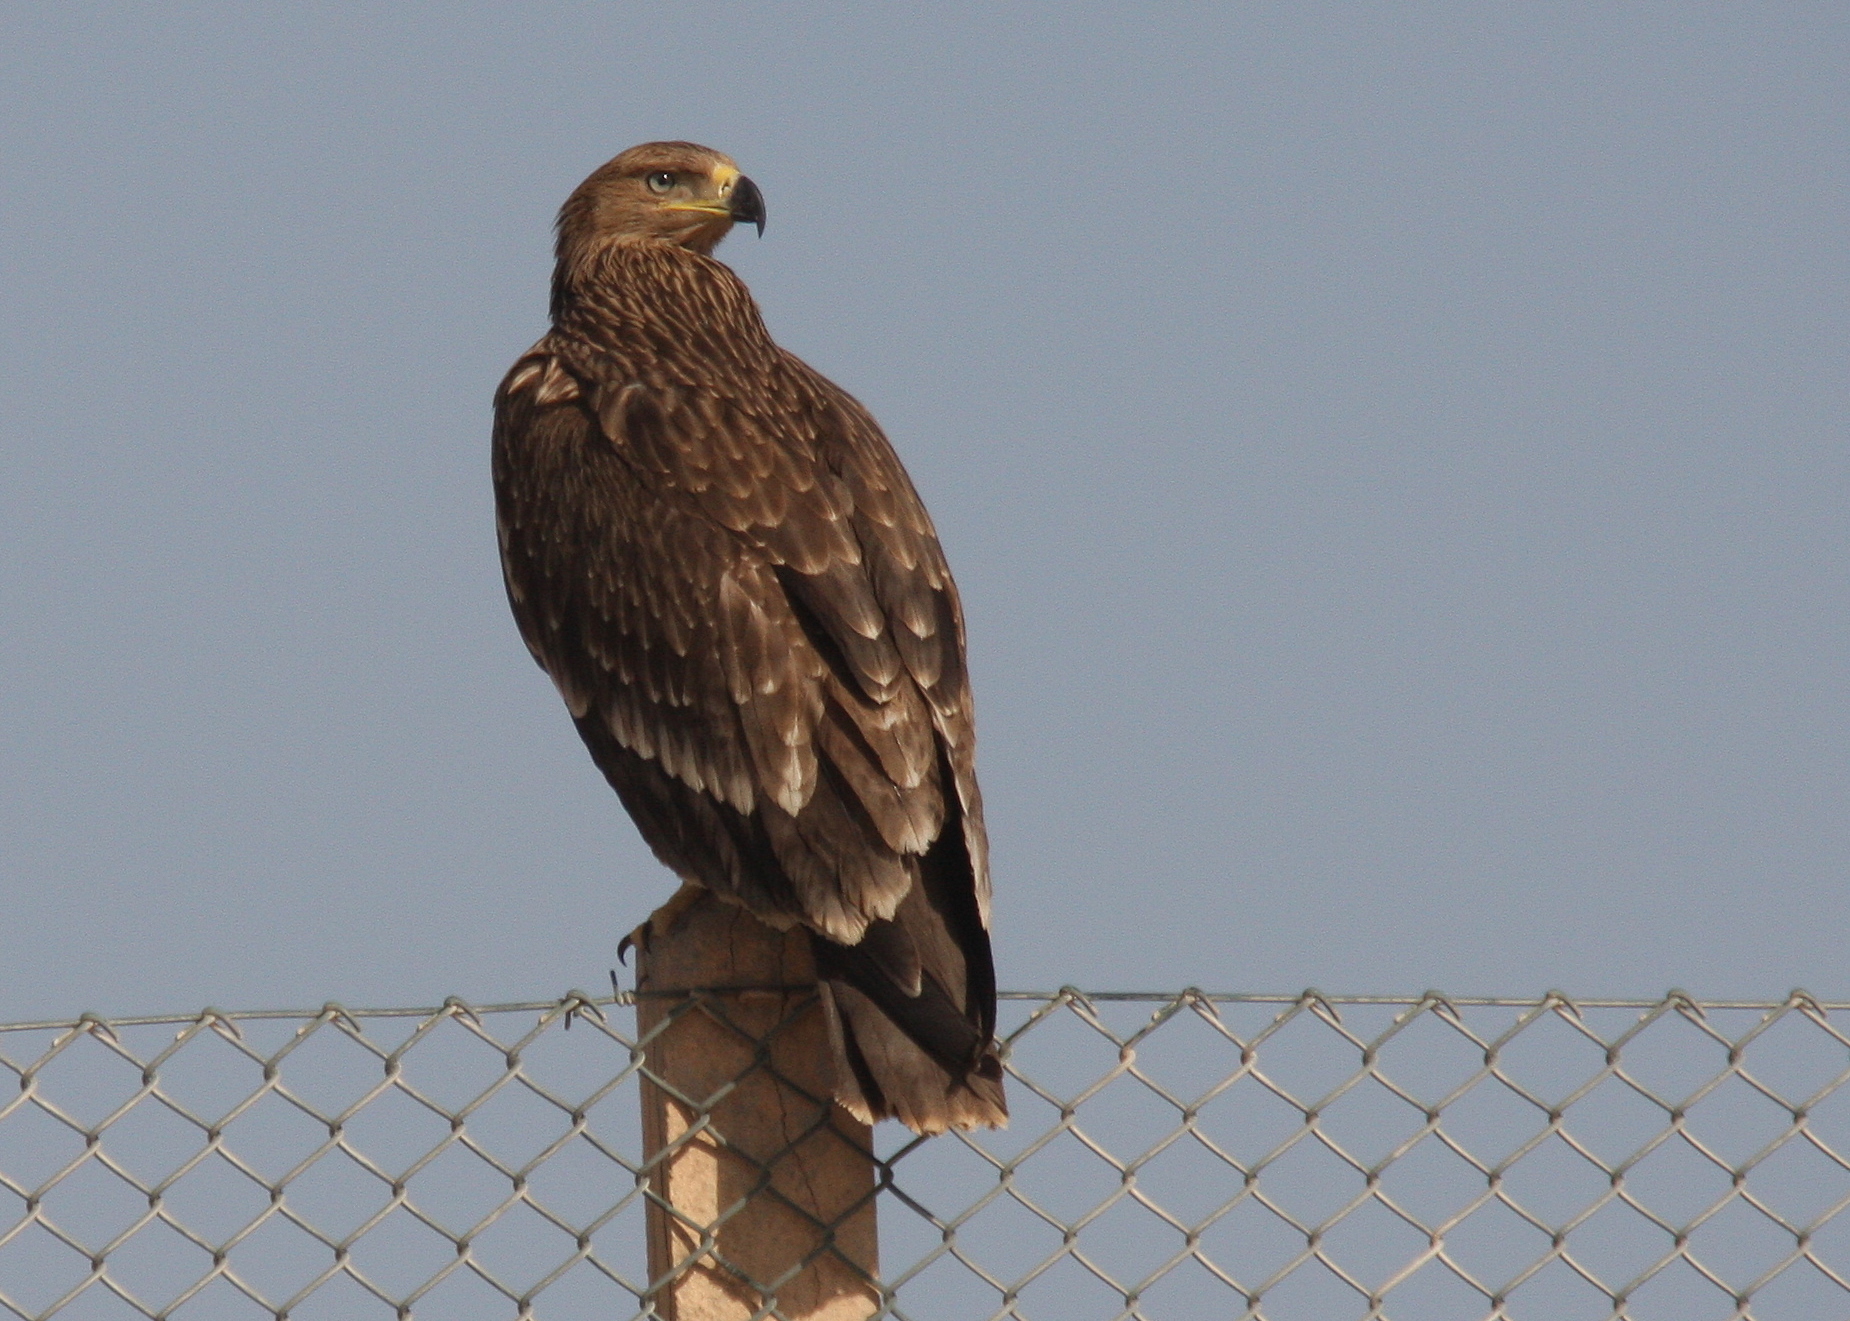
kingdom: Animalia
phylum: Chordata
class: Aves
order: Accipitriformes
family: Accipitridae
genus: Aquila
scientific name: Aquila heliaca
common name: Eastern imperial eagle
